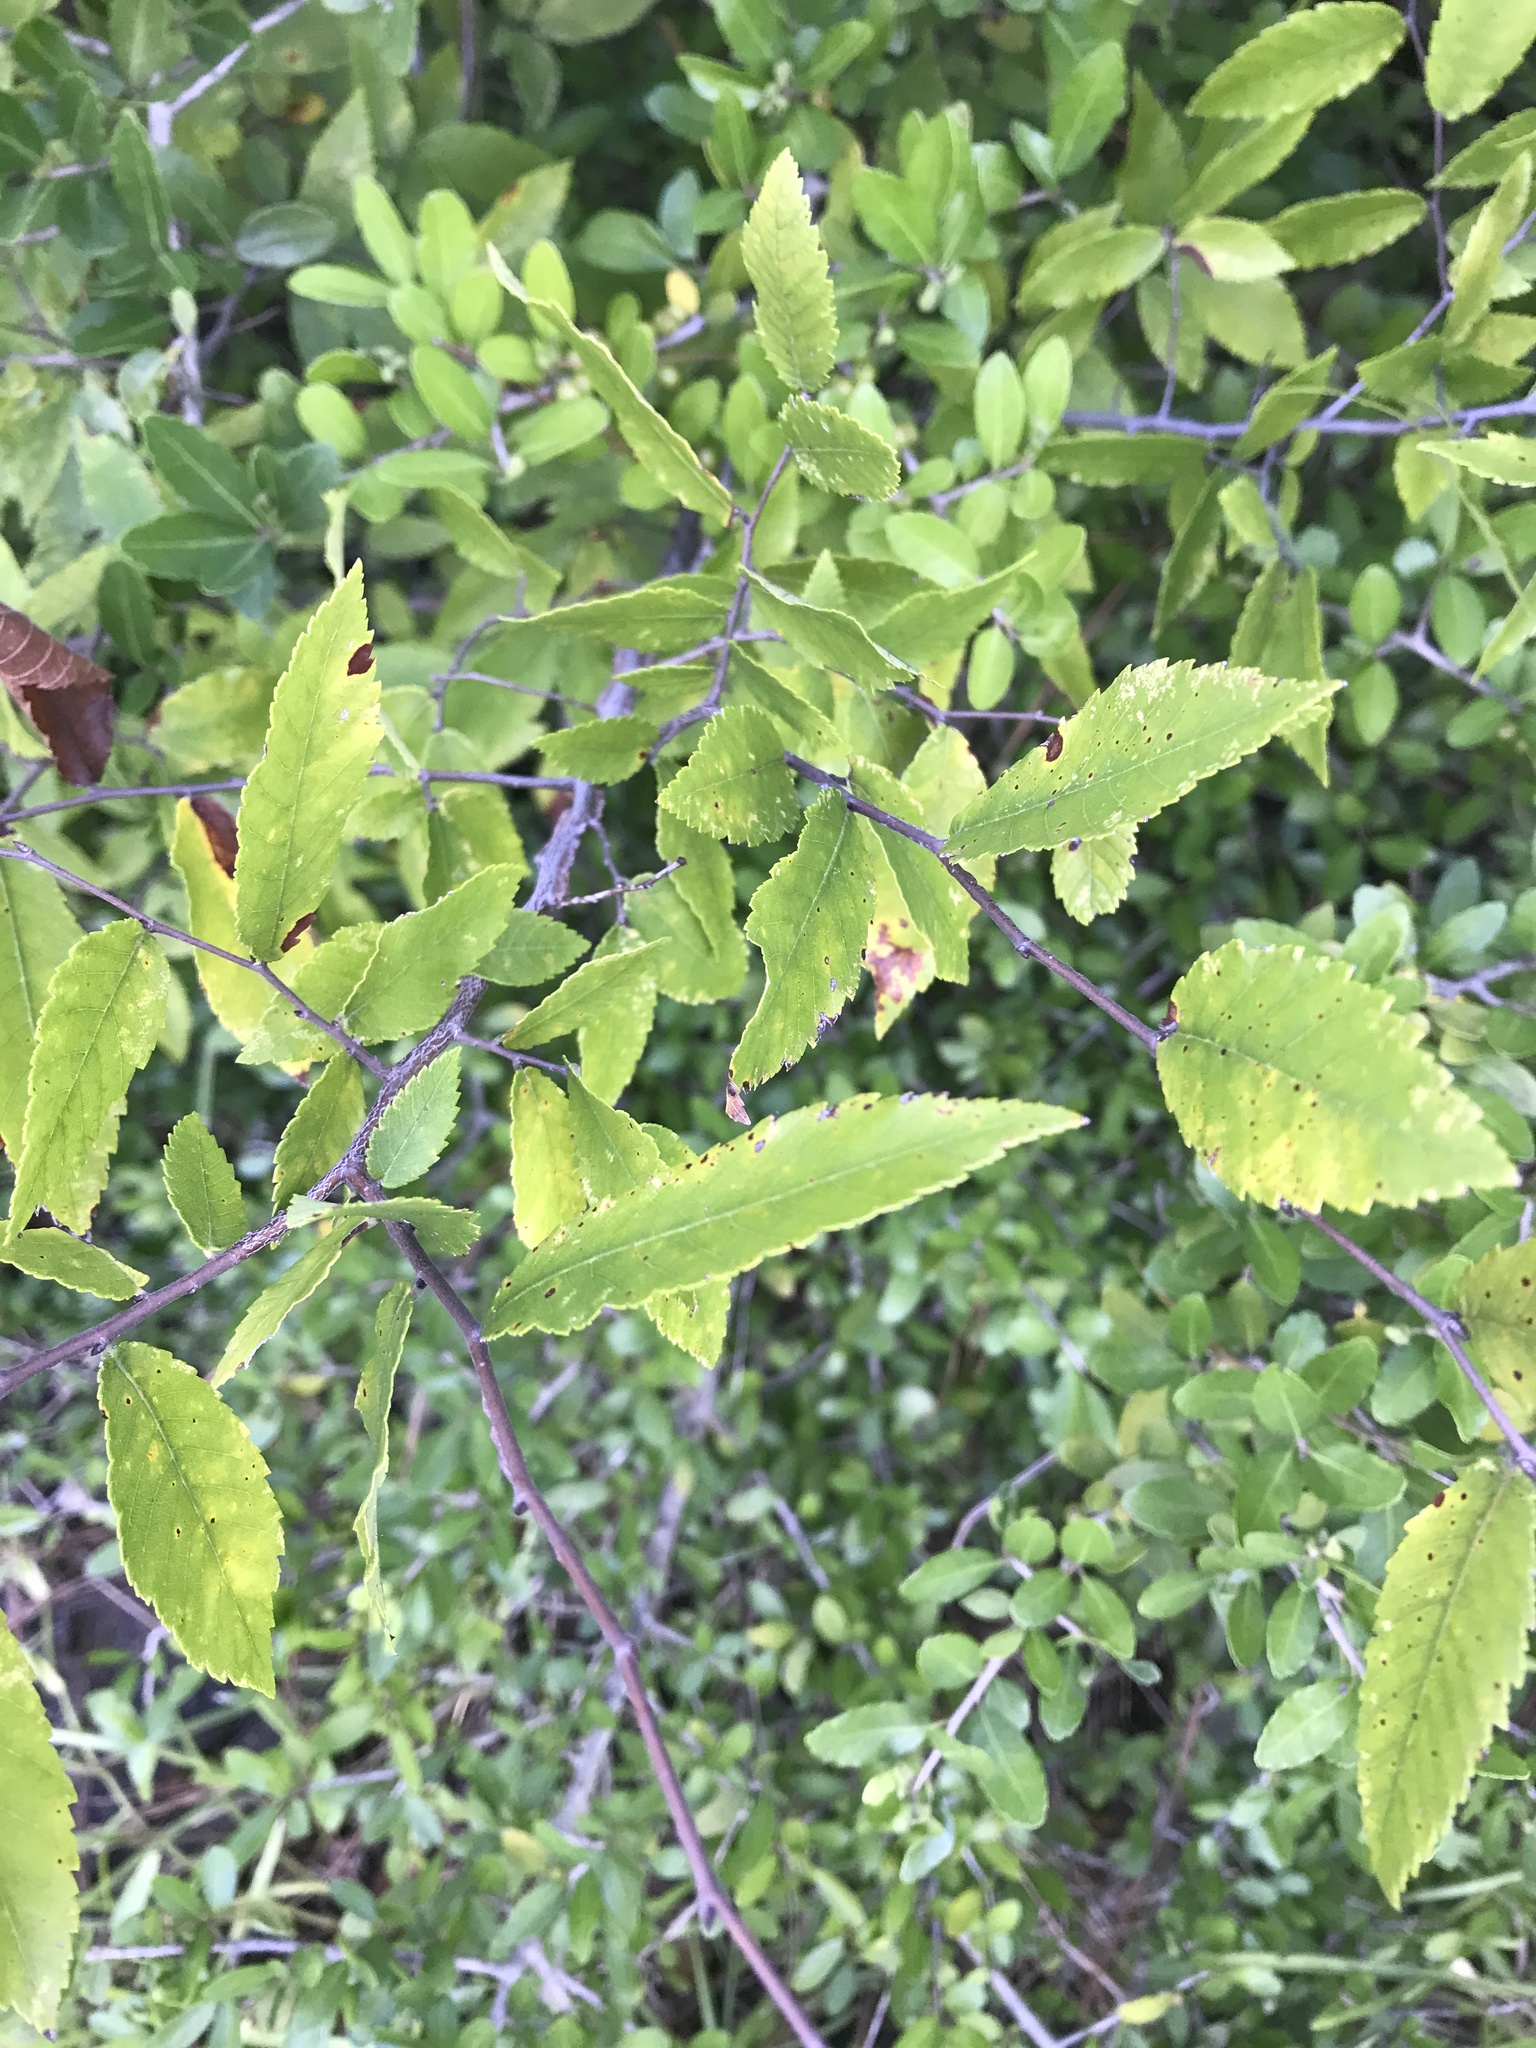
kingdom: Plantae
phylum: Tracheophyta
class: Magnoliopsida
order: Rosales
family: Ulmaceae
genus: Ulmus
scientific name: Ulmus crassifolia
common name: Basket elm
